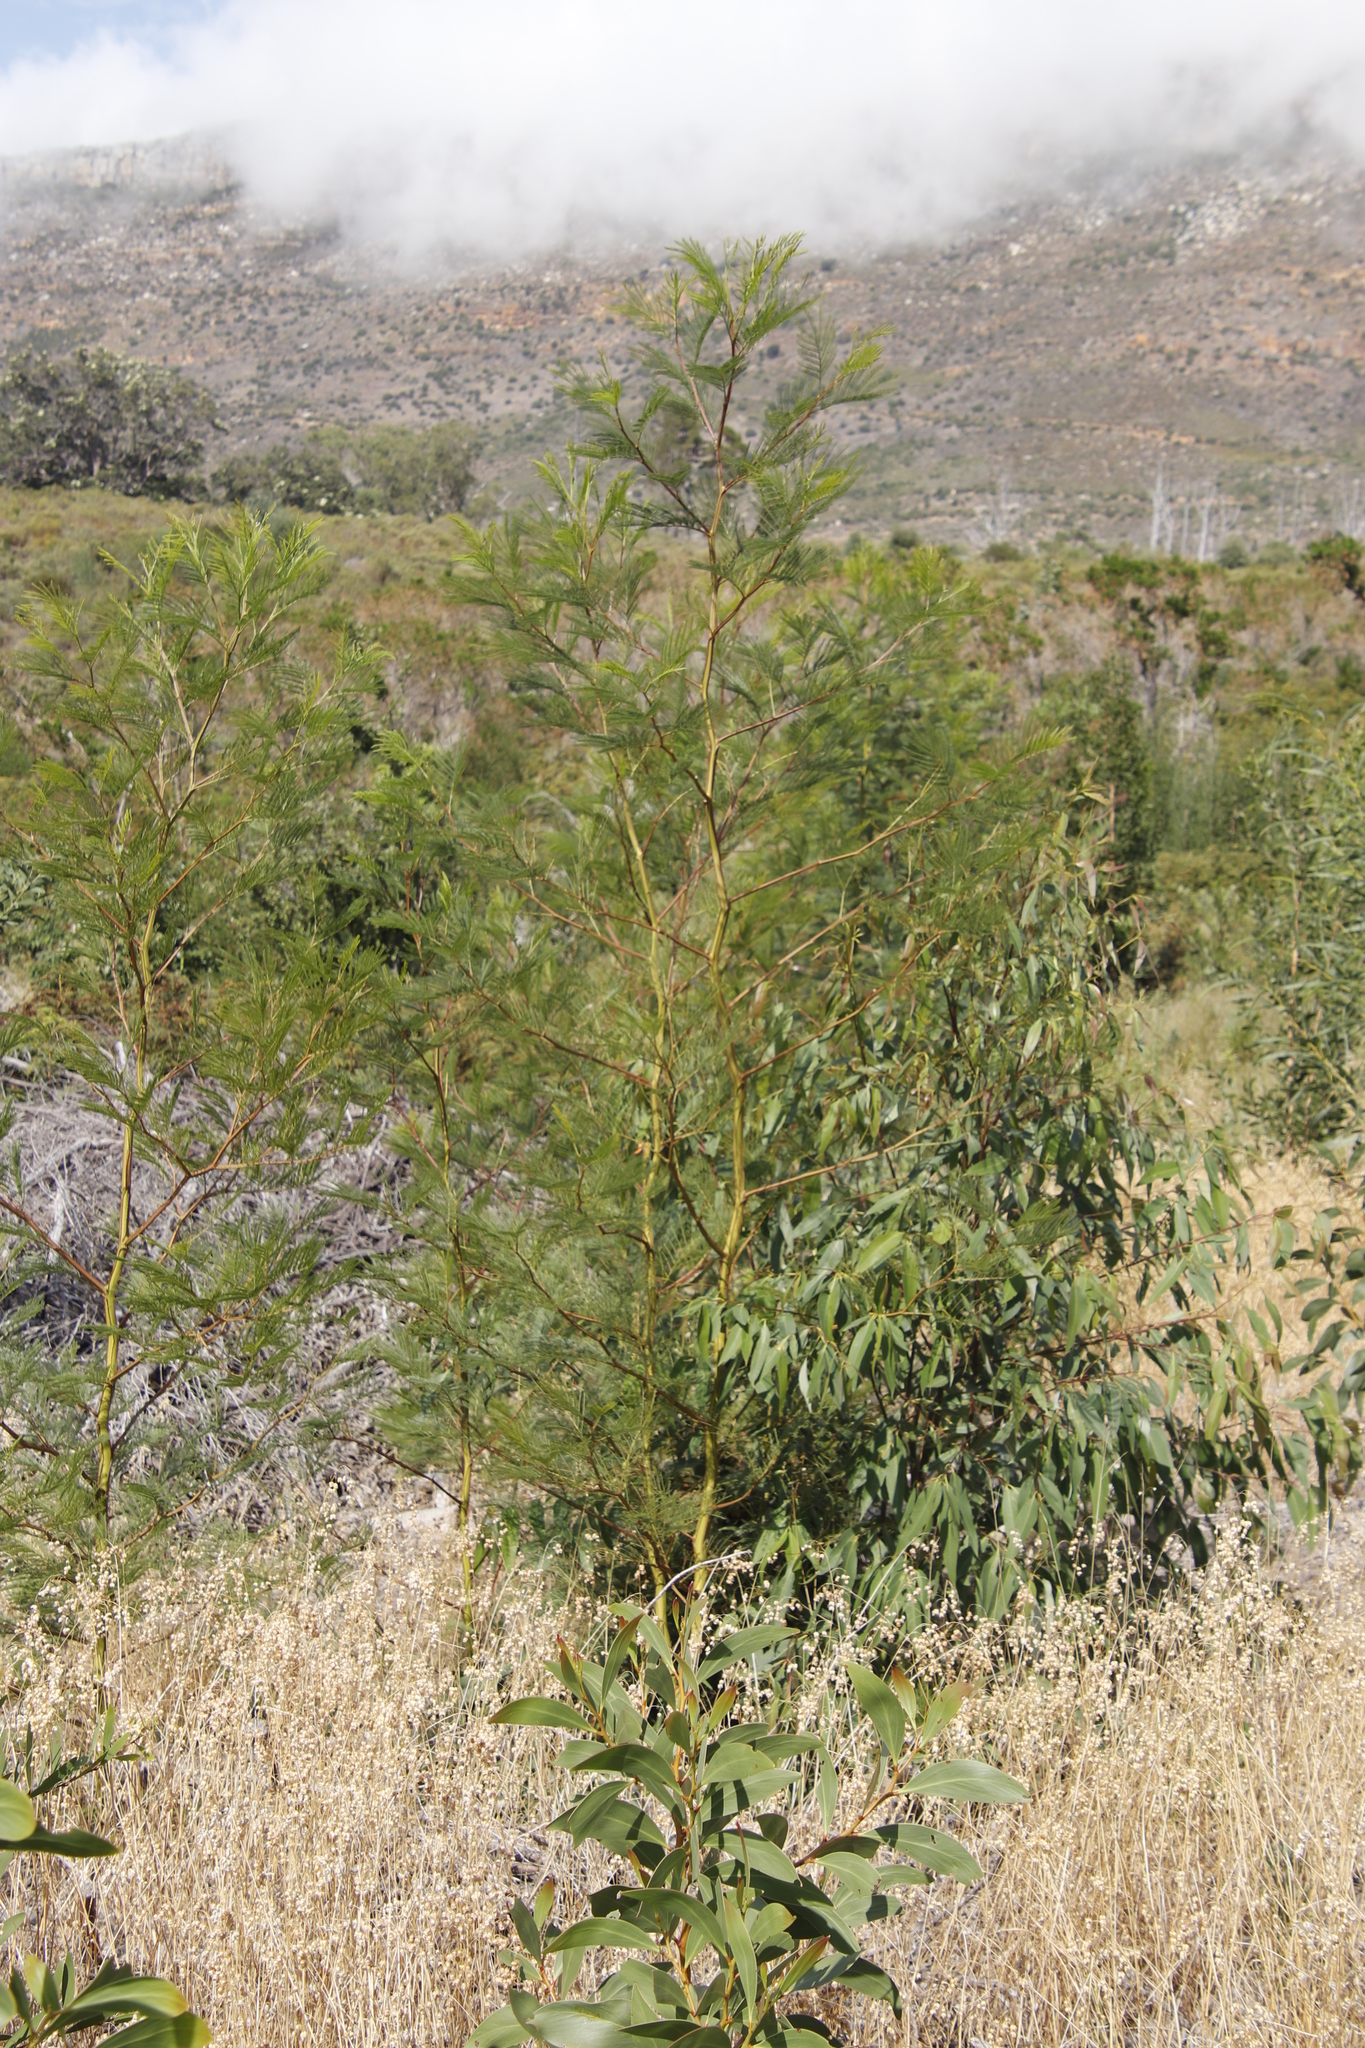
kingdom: Plantae
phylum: Tracheophyta
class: Magnoliopsida
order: Fabales
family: Fabaceae
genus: Acacia
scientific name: Acacia decurrens
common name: Green wattle
